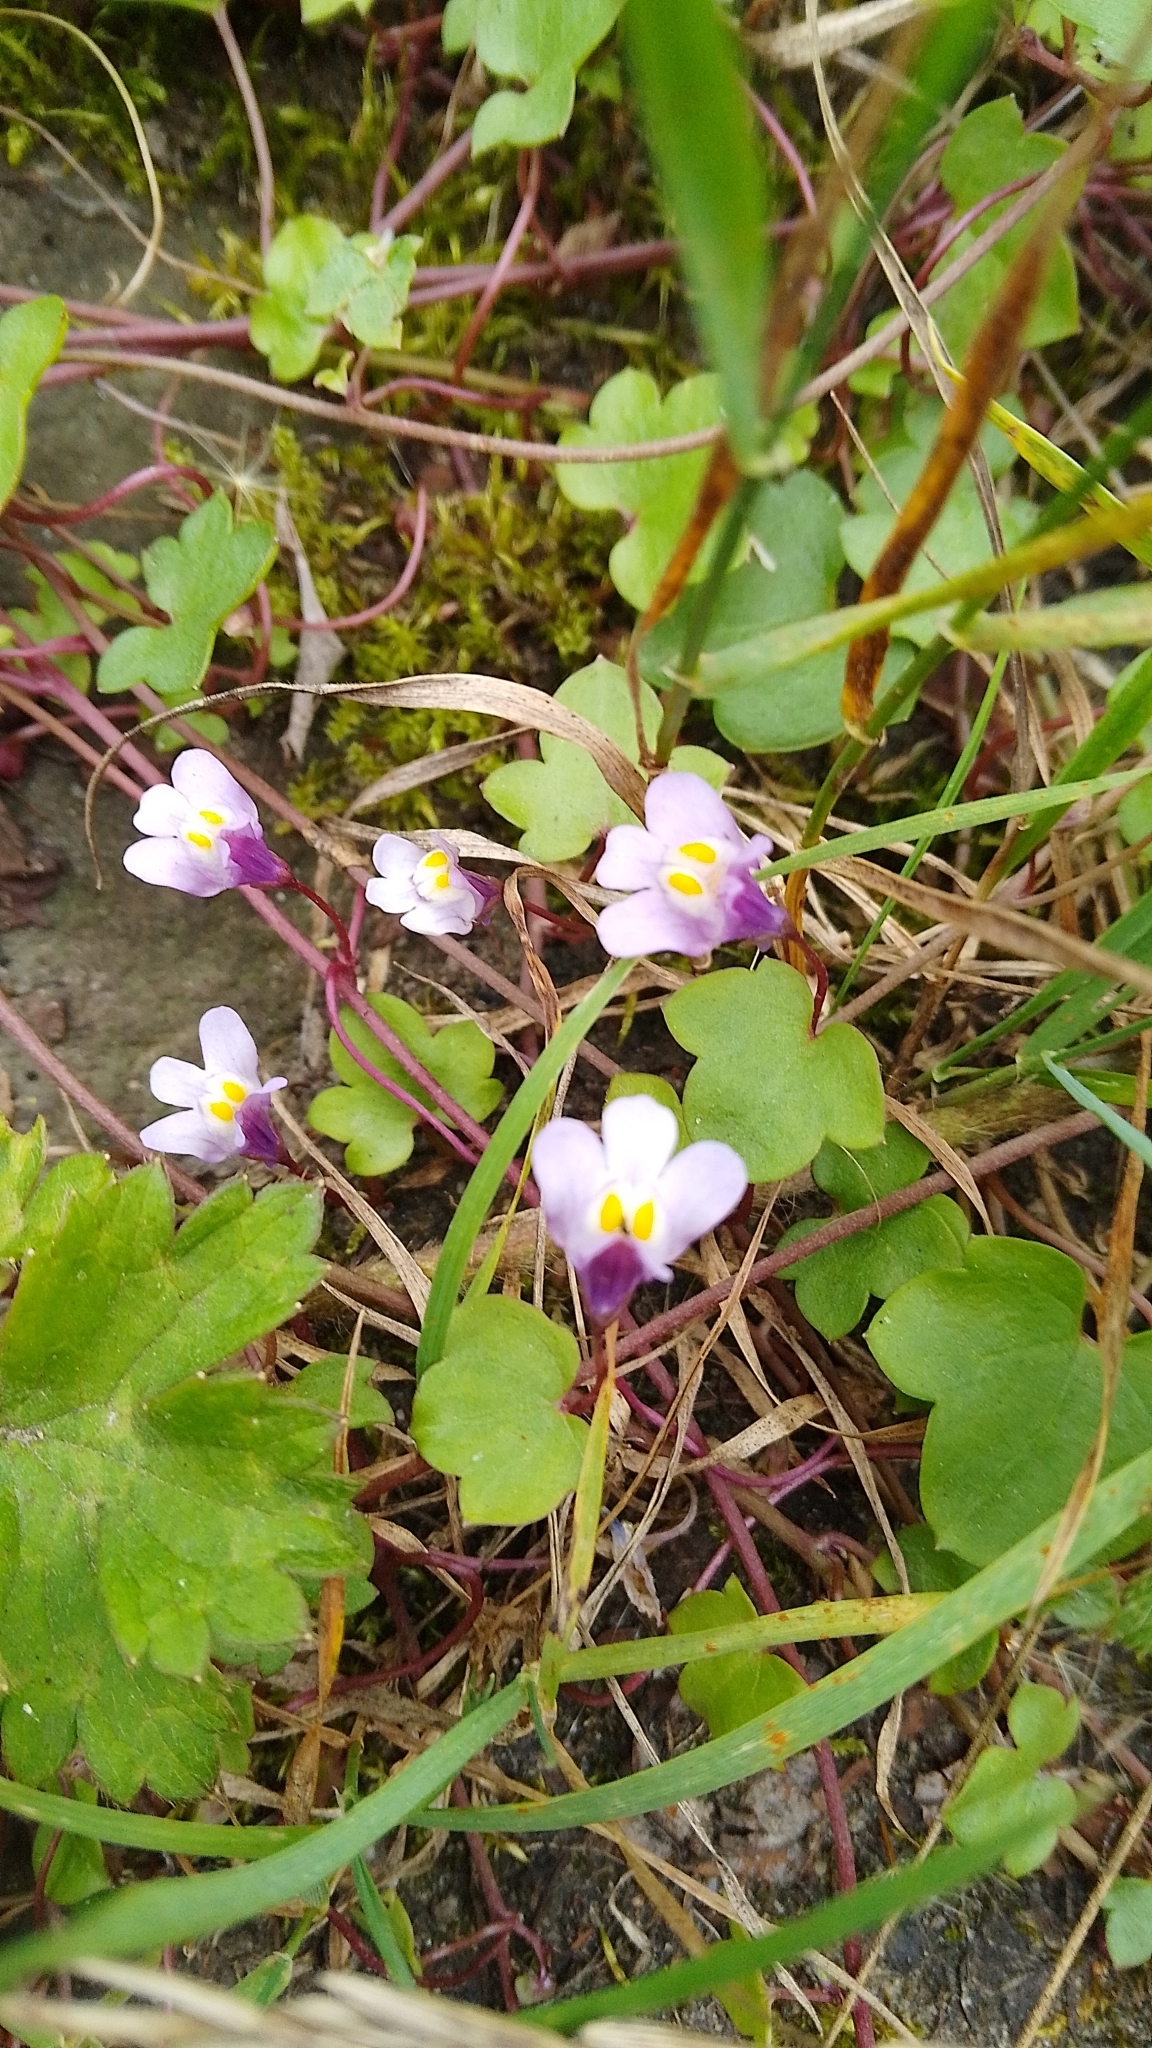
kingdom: Plantae
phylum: Tracheophyta
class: Magnoliopsida
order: Lamiales
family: Plantaginaceae
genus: Cymbalaria
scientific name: Cymbalaria muralis
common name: Ivy-leaved toadflax
